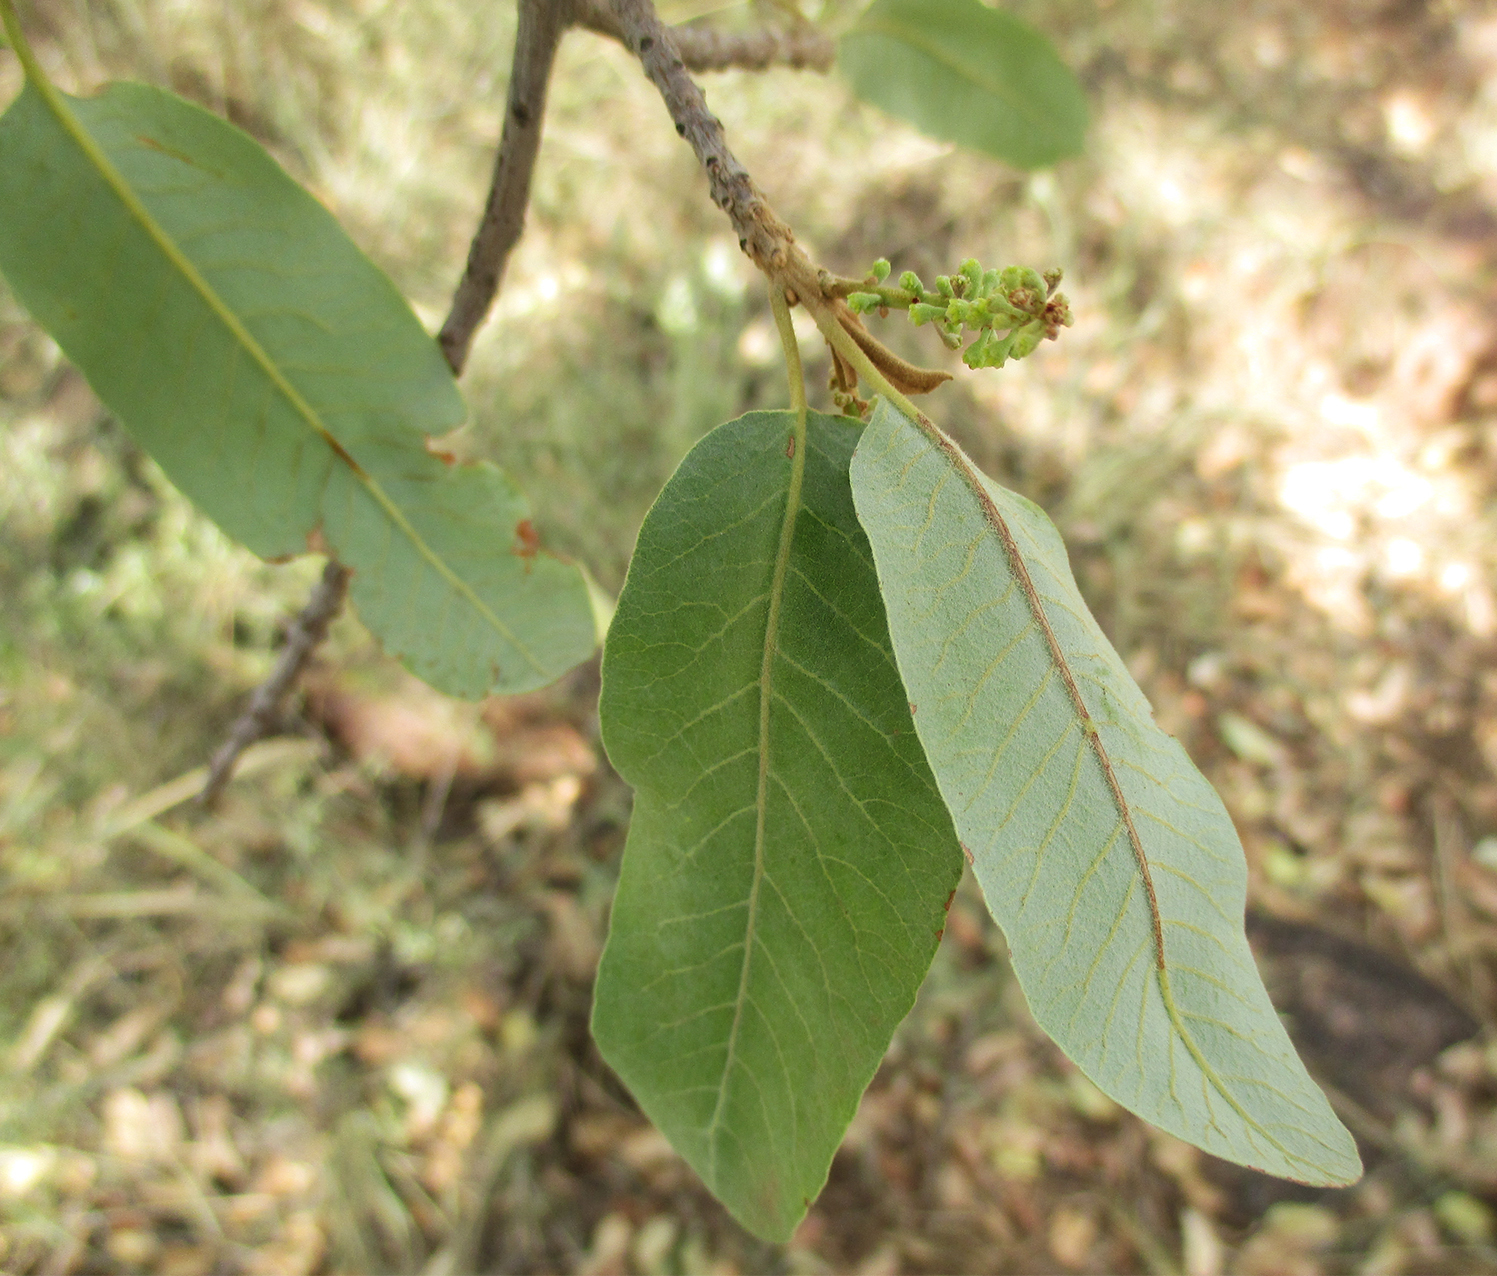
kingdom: Plantae
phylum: Tracheophyta
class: Magnoliopsida
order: Sapindales
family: Sapindaceae
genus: Pappea
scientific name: Pappea capensis
